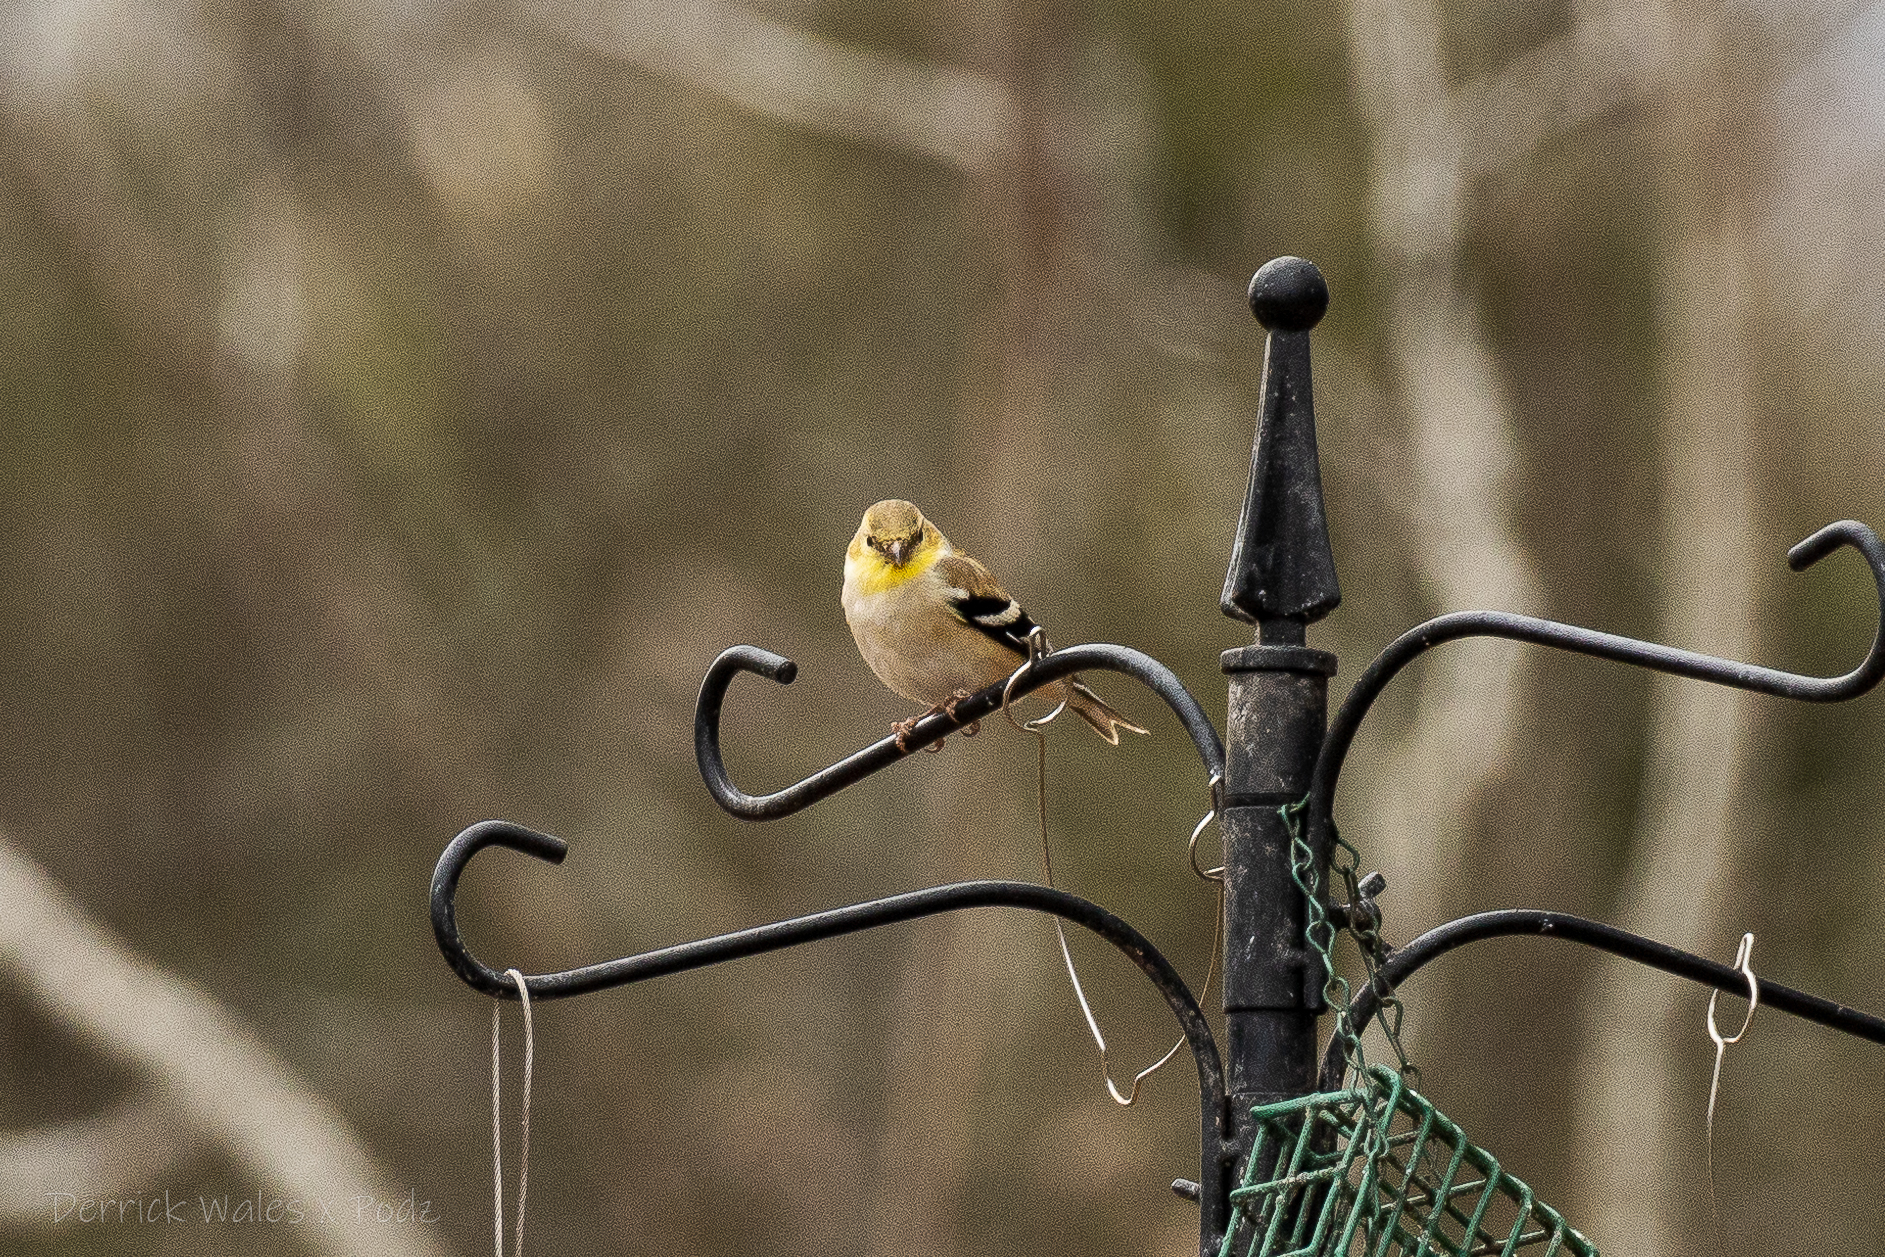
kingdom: Animalia
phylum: Chordata
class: Aves
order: Passeriformes
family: Fringillidae
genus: Spinus
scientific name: Spinus tristis
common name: American goldfinch
